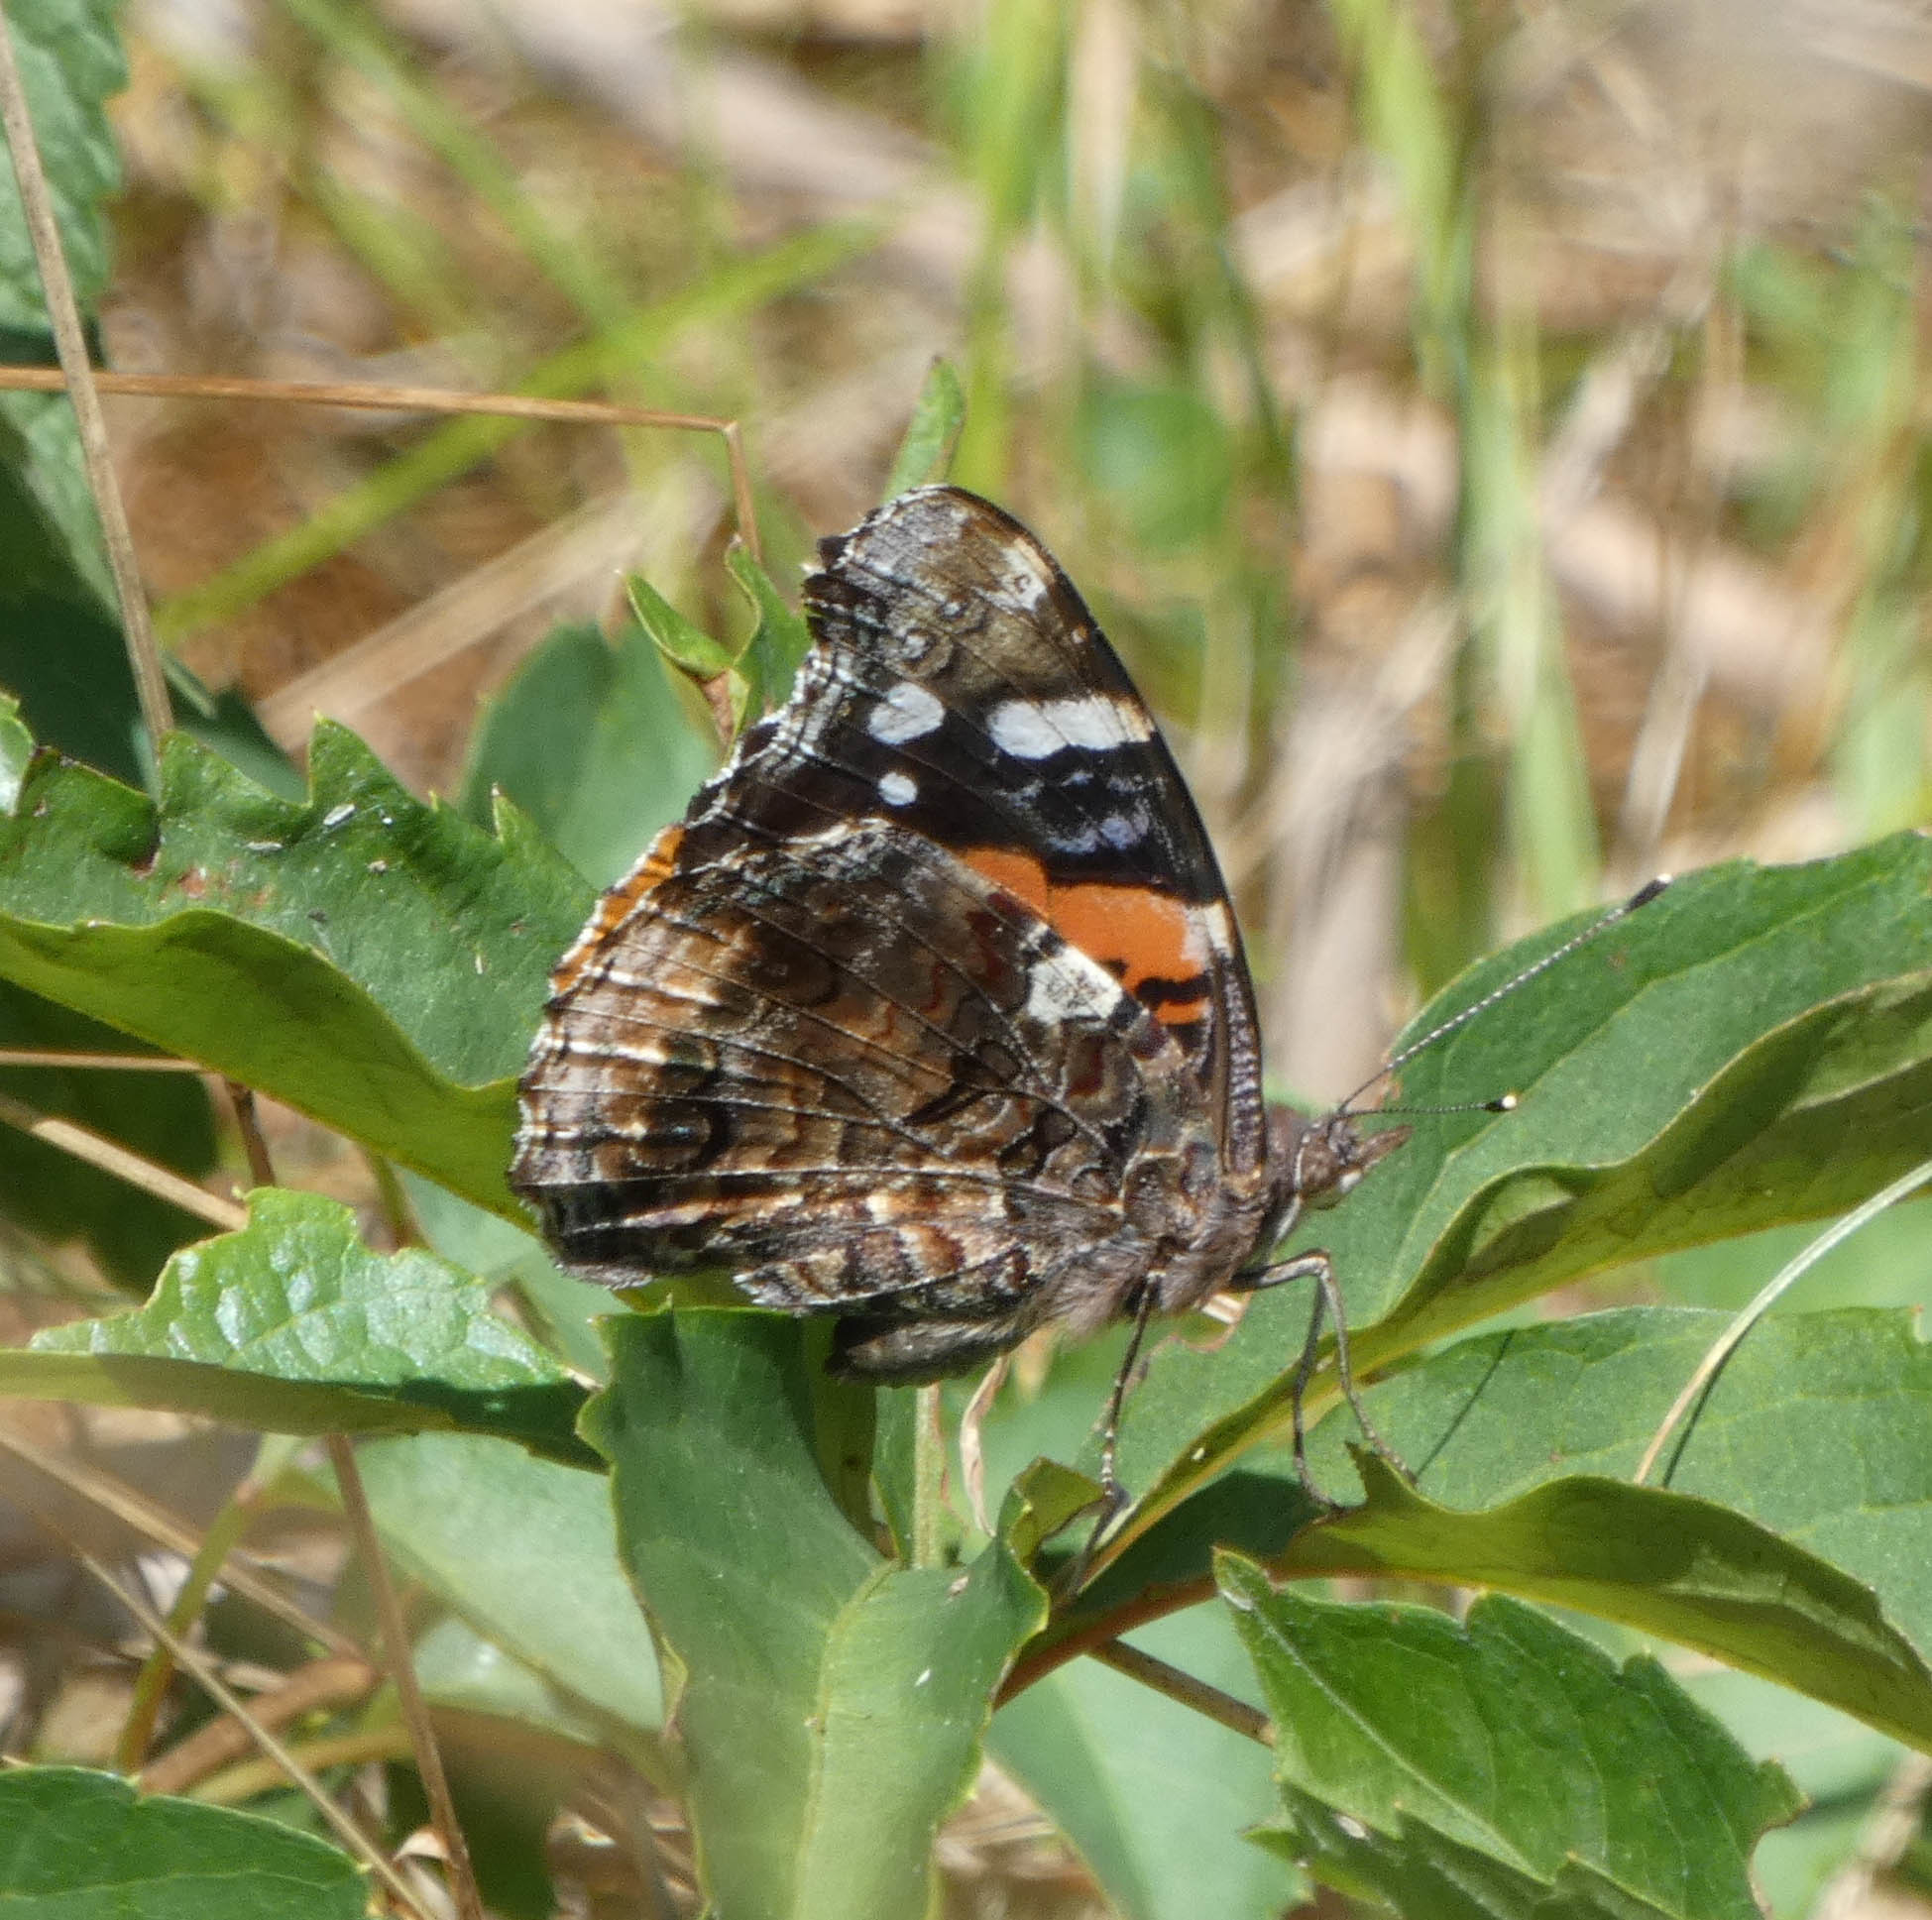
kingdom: Animalia
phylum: Arthropoda
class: Insecta
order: Lepidoptera
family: Nymphalidae
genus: Vanessa
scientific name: Vanessa atalanta
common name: Red admiral
